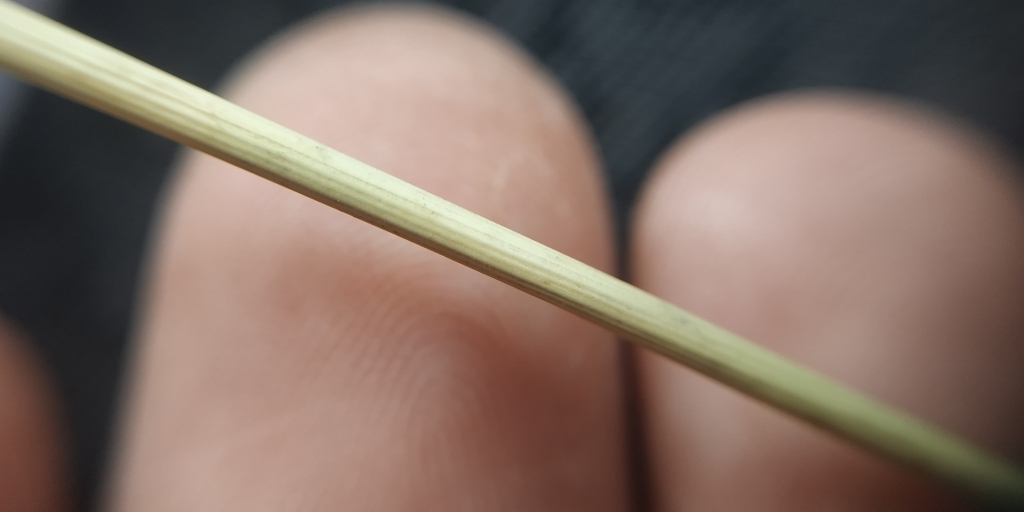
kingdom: Plantae
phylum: Tracheophyta
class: Liliopsida
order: Poales
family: Poaceae
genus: Stipa
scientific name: Stipa pennata
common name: European feather grass
